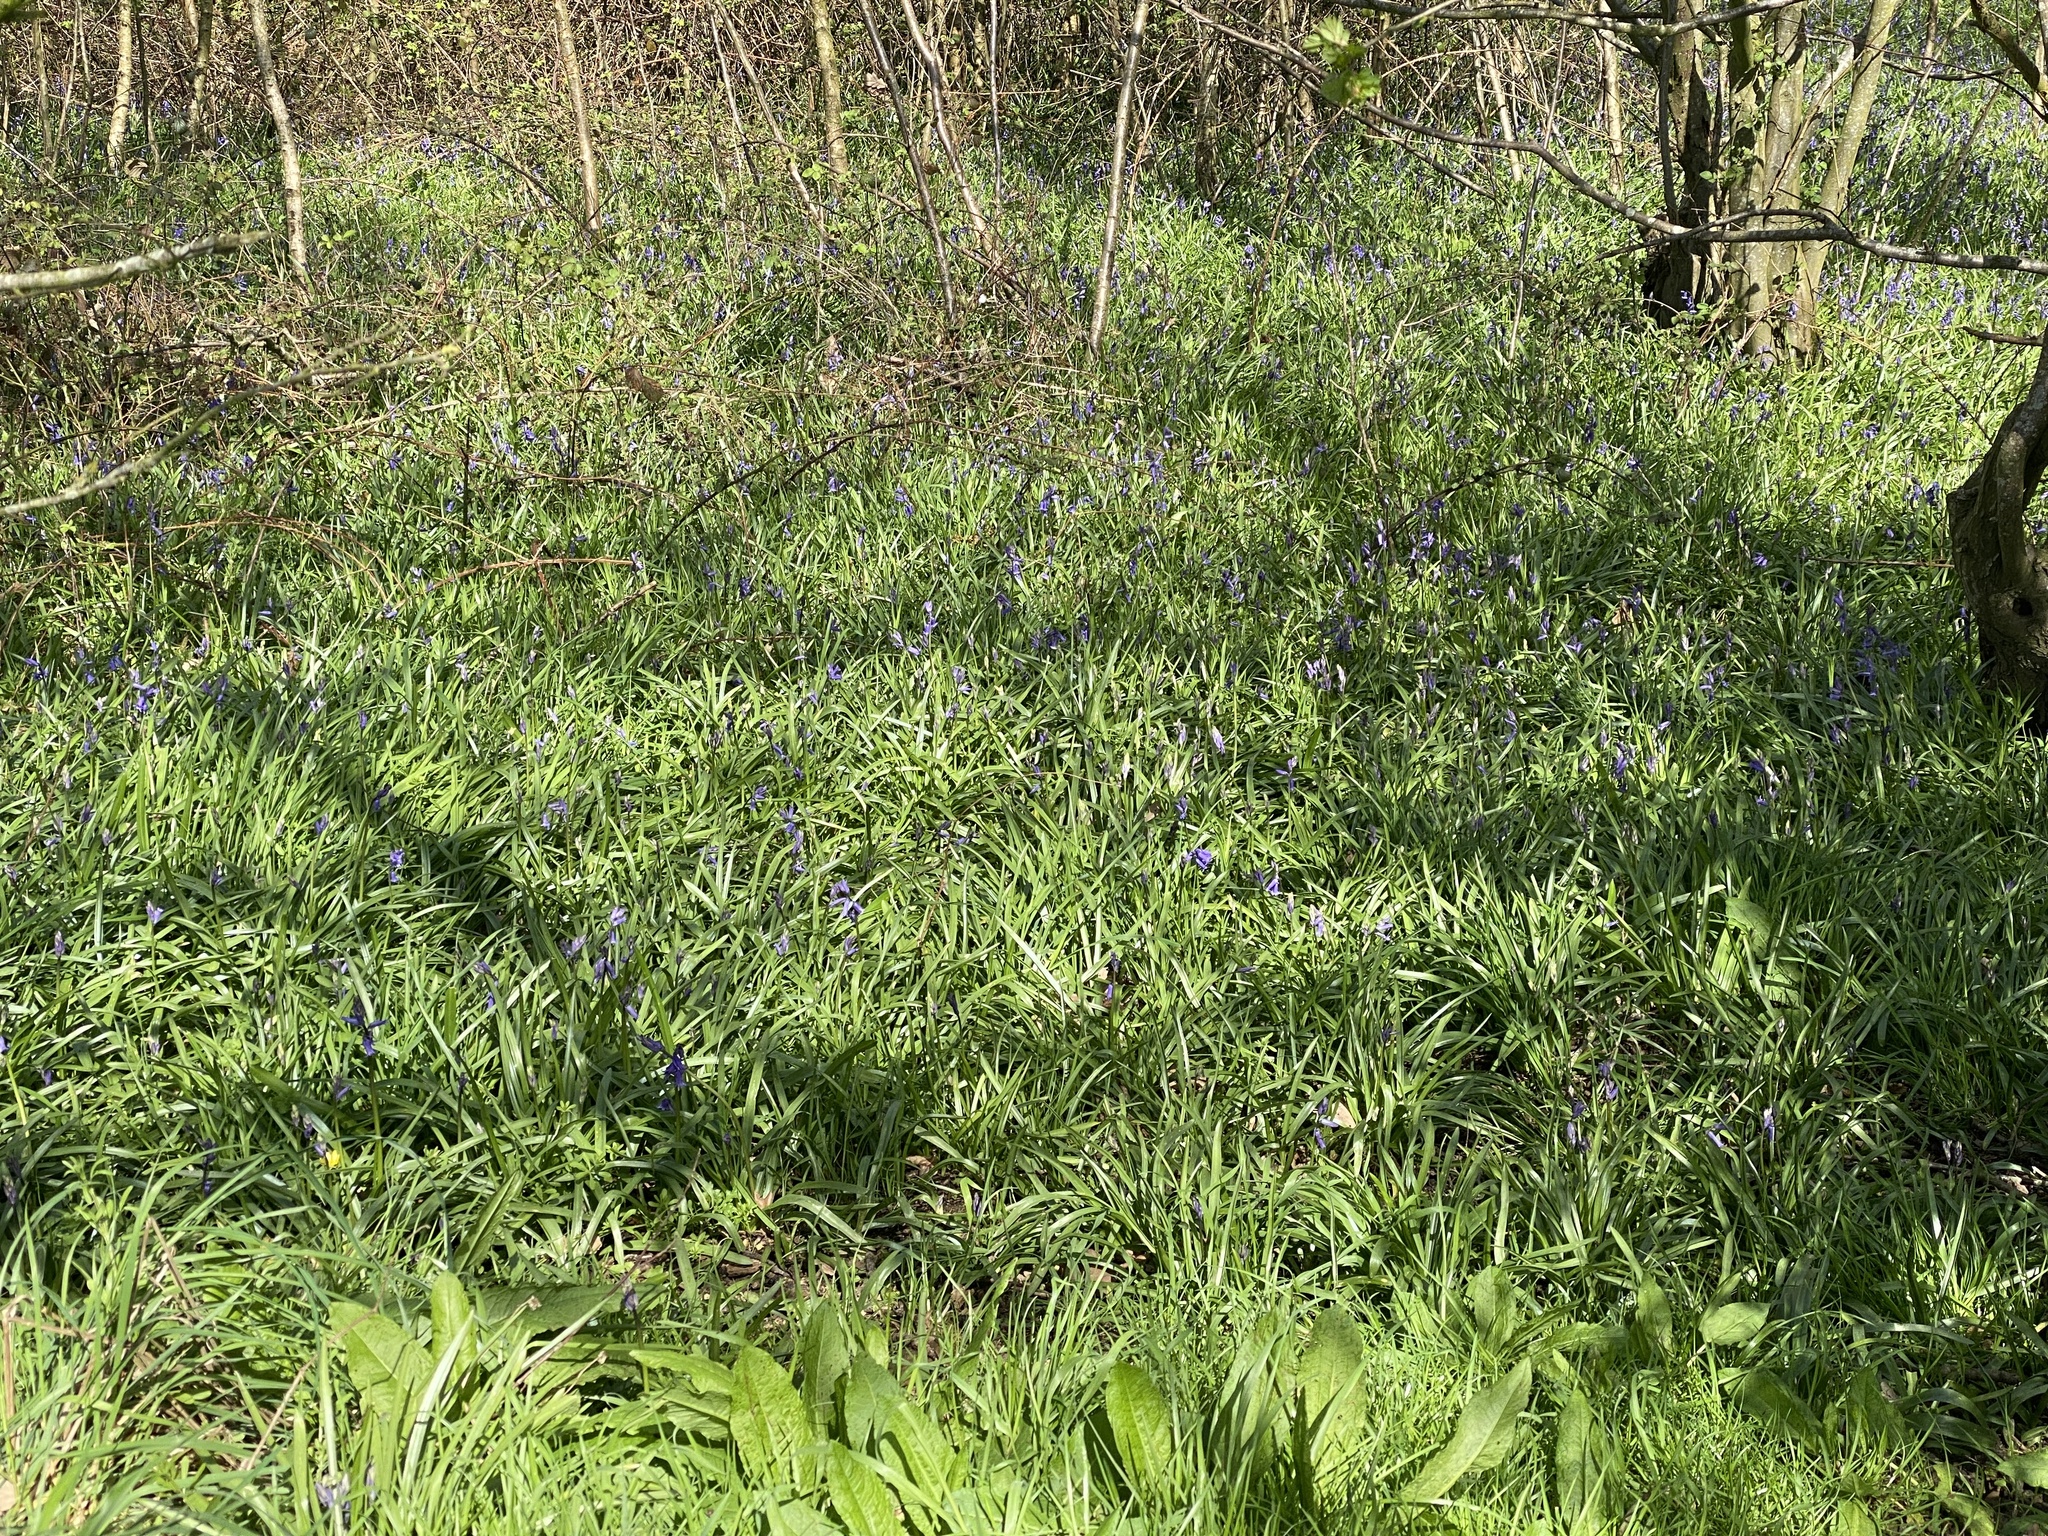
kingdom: Plantae
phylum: Tracheophyta
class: Liliopsida
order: Asparagales
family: Asparagaceae
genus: Hyacinthoides
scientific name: Hyacinthoides non-scripta
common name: Bluebell
